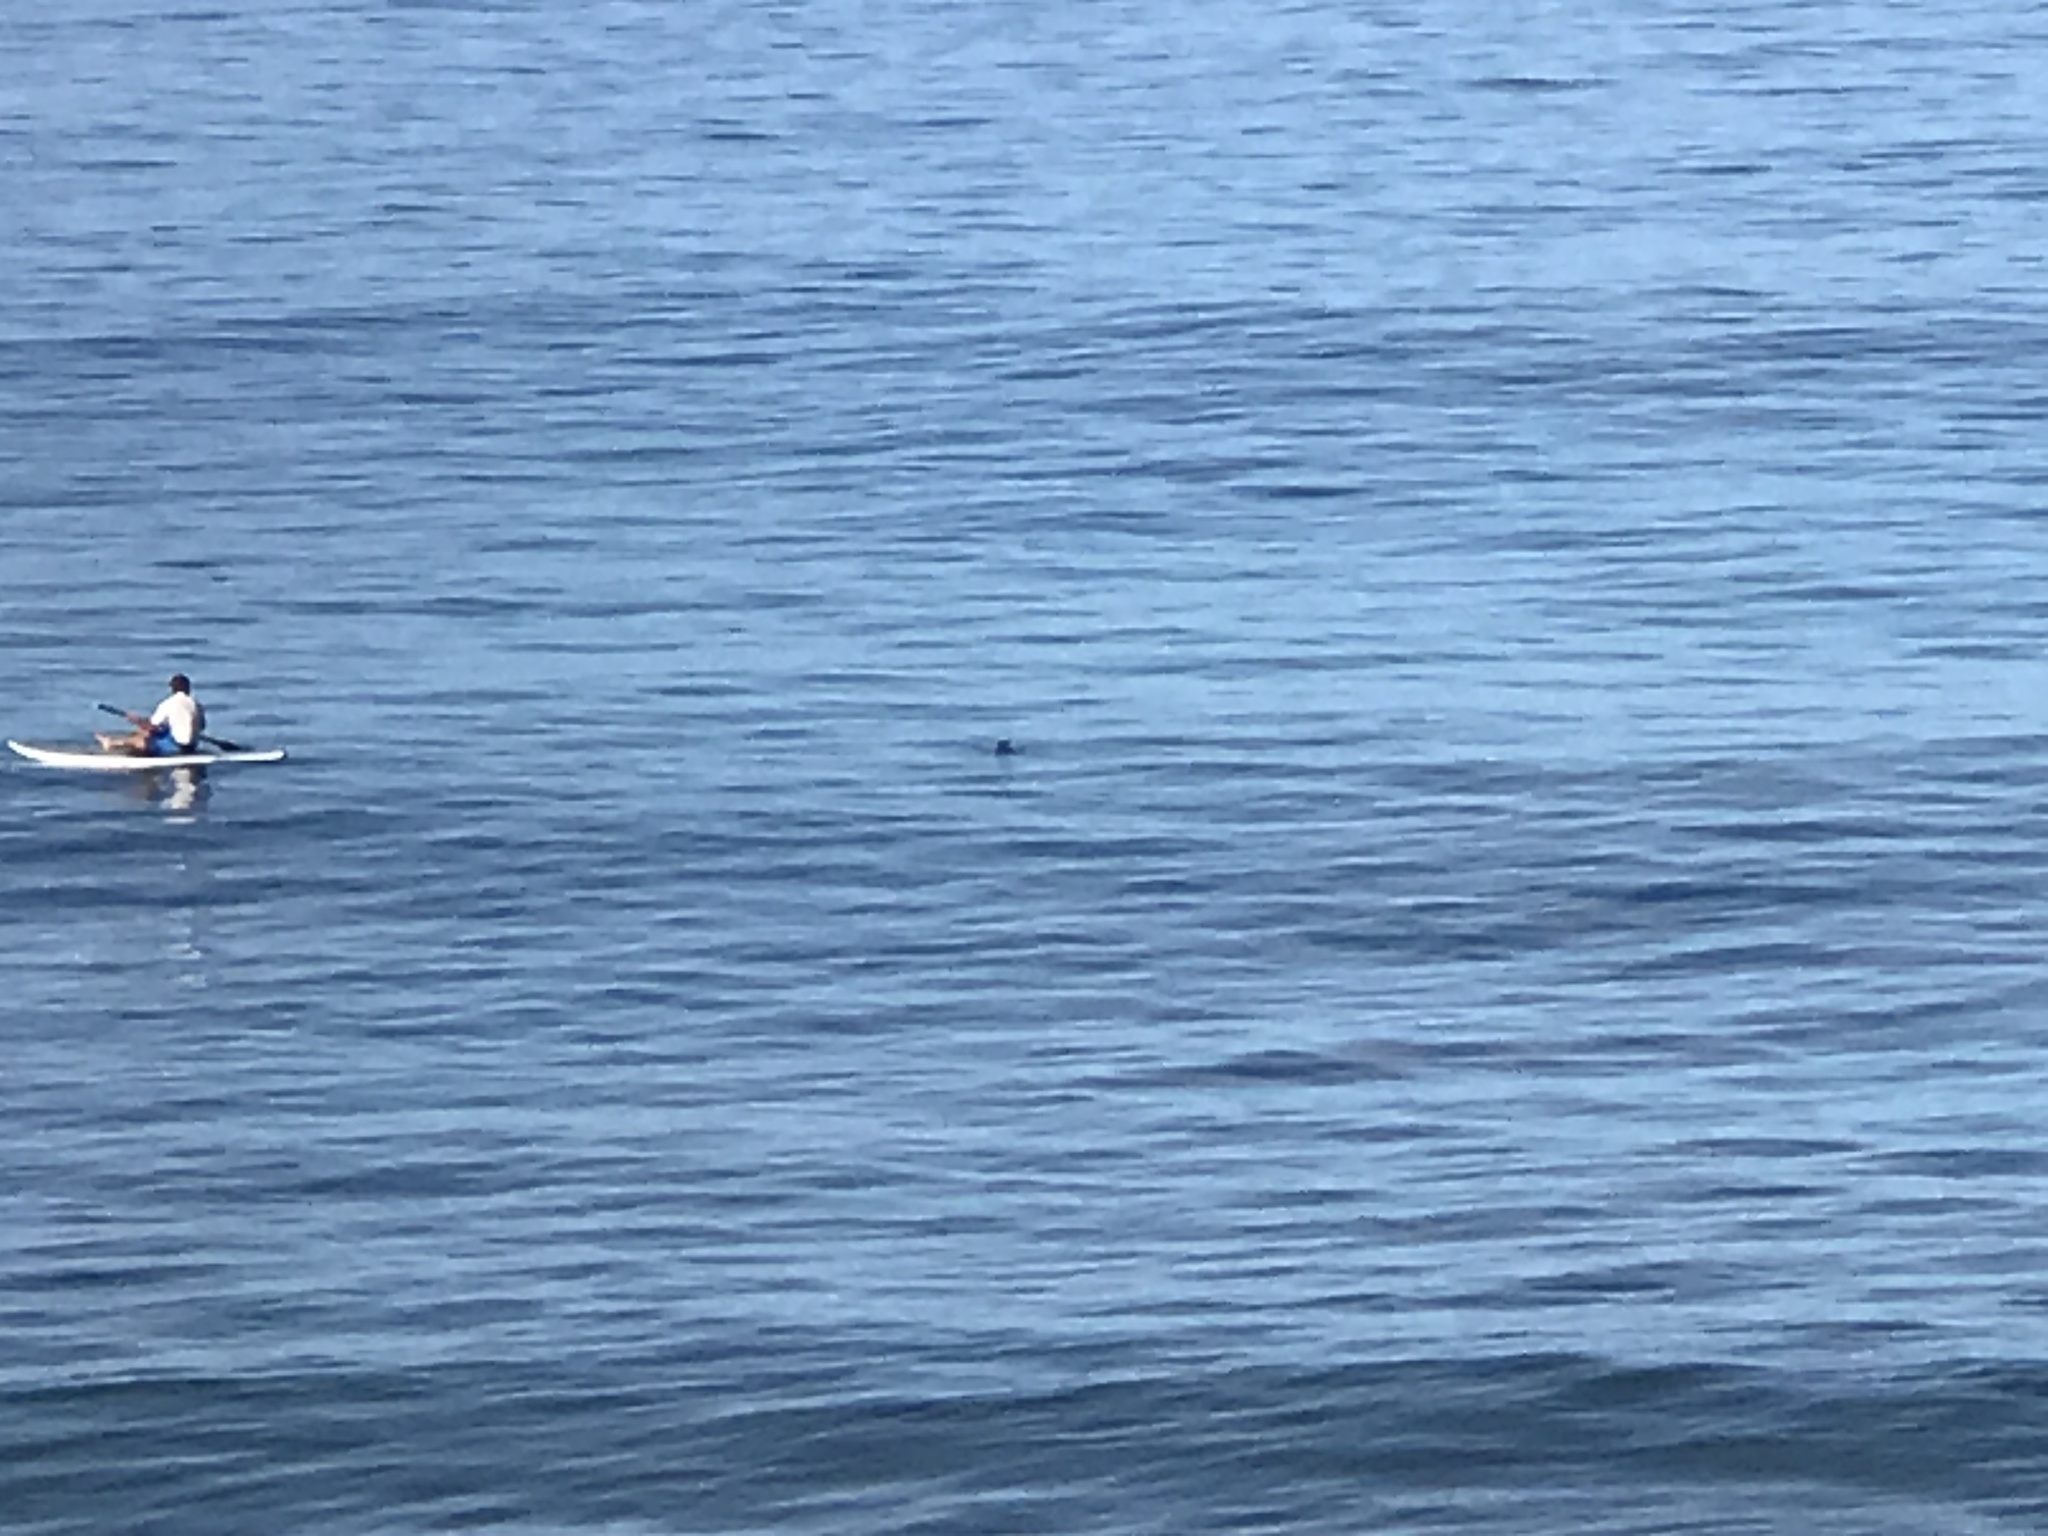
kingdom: Animalia
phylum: Chordata
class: Mammalia
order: Carnivora
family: Phocidae
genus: Neomonachus
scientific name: Neomonachus schauinslandi
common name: Hawaiian monk seal
